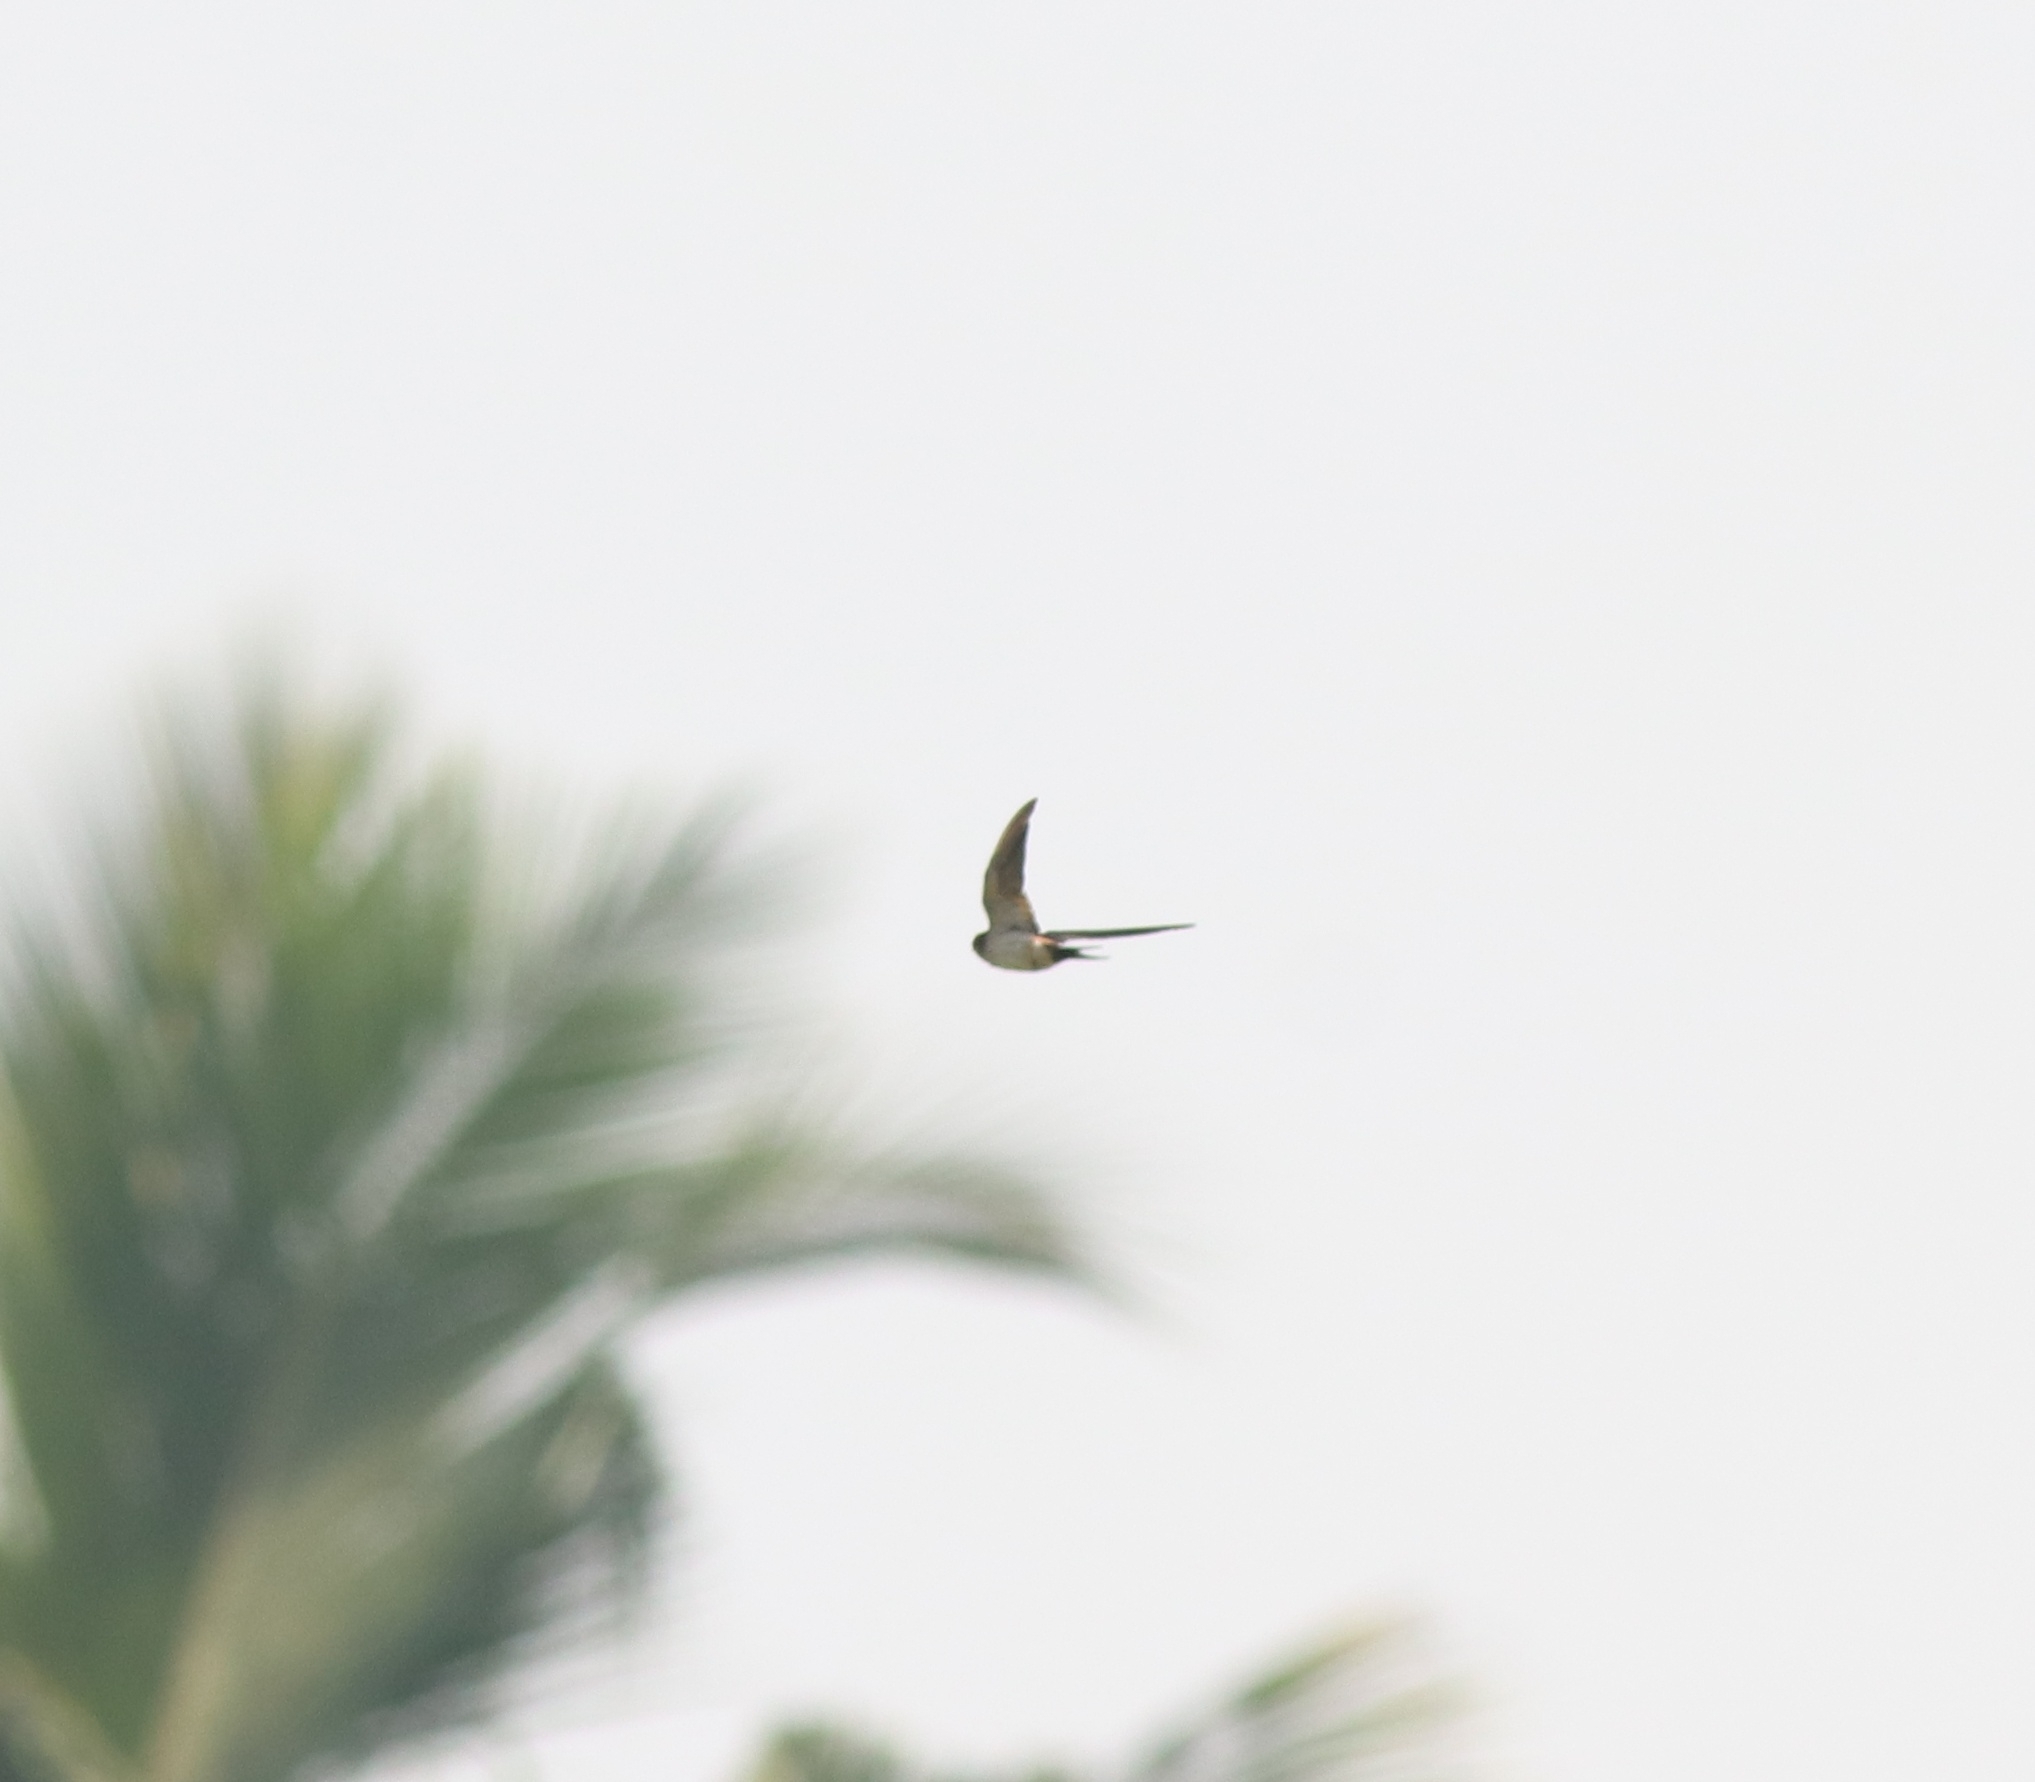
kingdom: Animalia
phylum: Chordata
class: Aves
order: Passeriformes
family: Hirundinidae
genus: Cecropis
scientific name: Cecropis daurica
